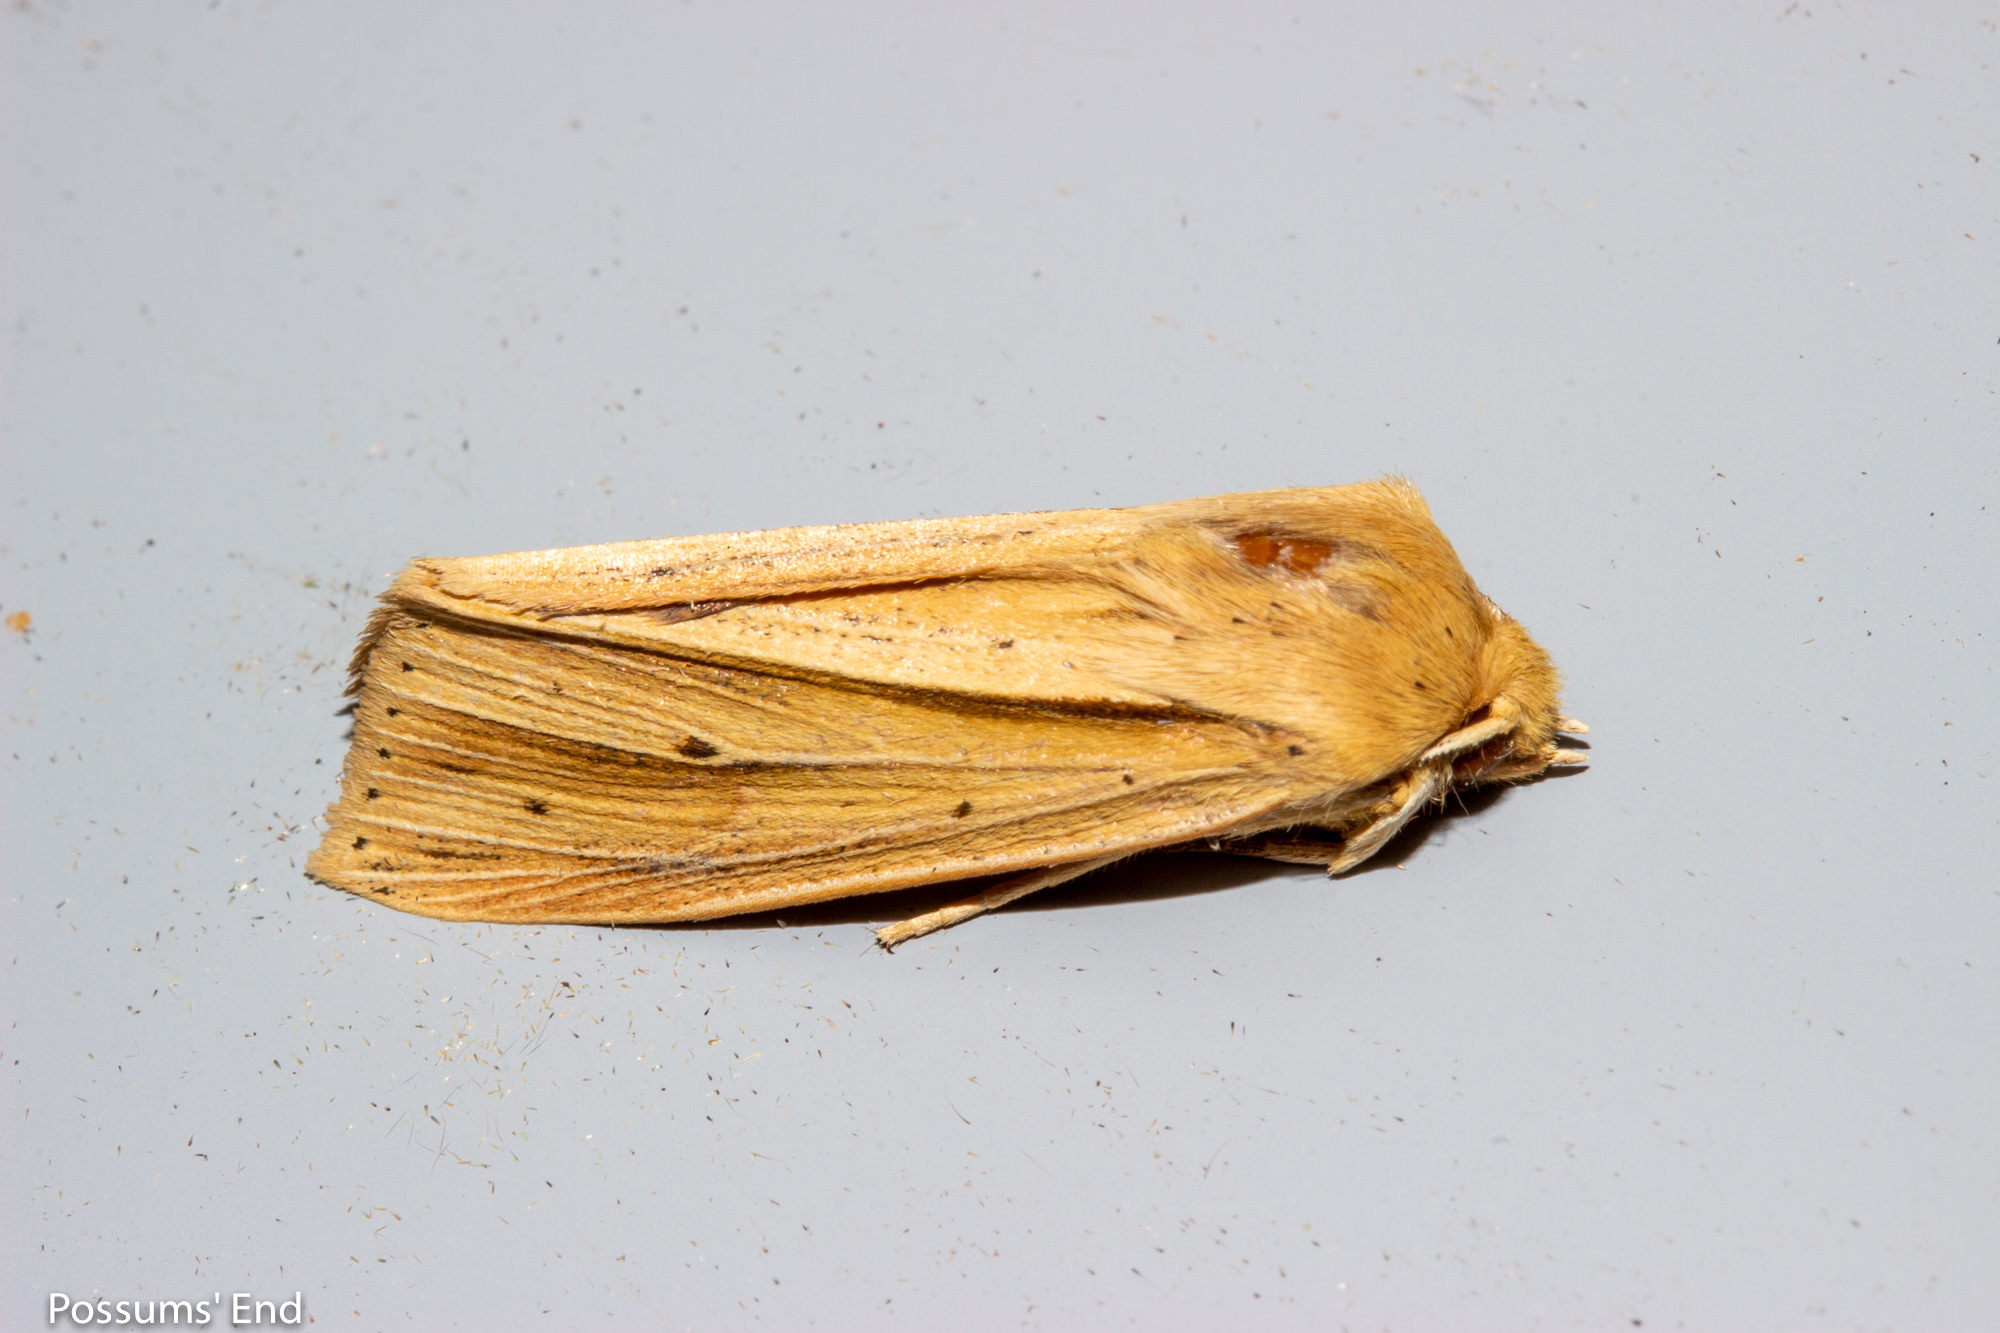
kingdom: Animalia
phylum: Arthropoda
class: Insecta
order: Lepidoptera
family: Noctuidae
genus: Ichneutica
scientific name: Ichneutica sulcana
